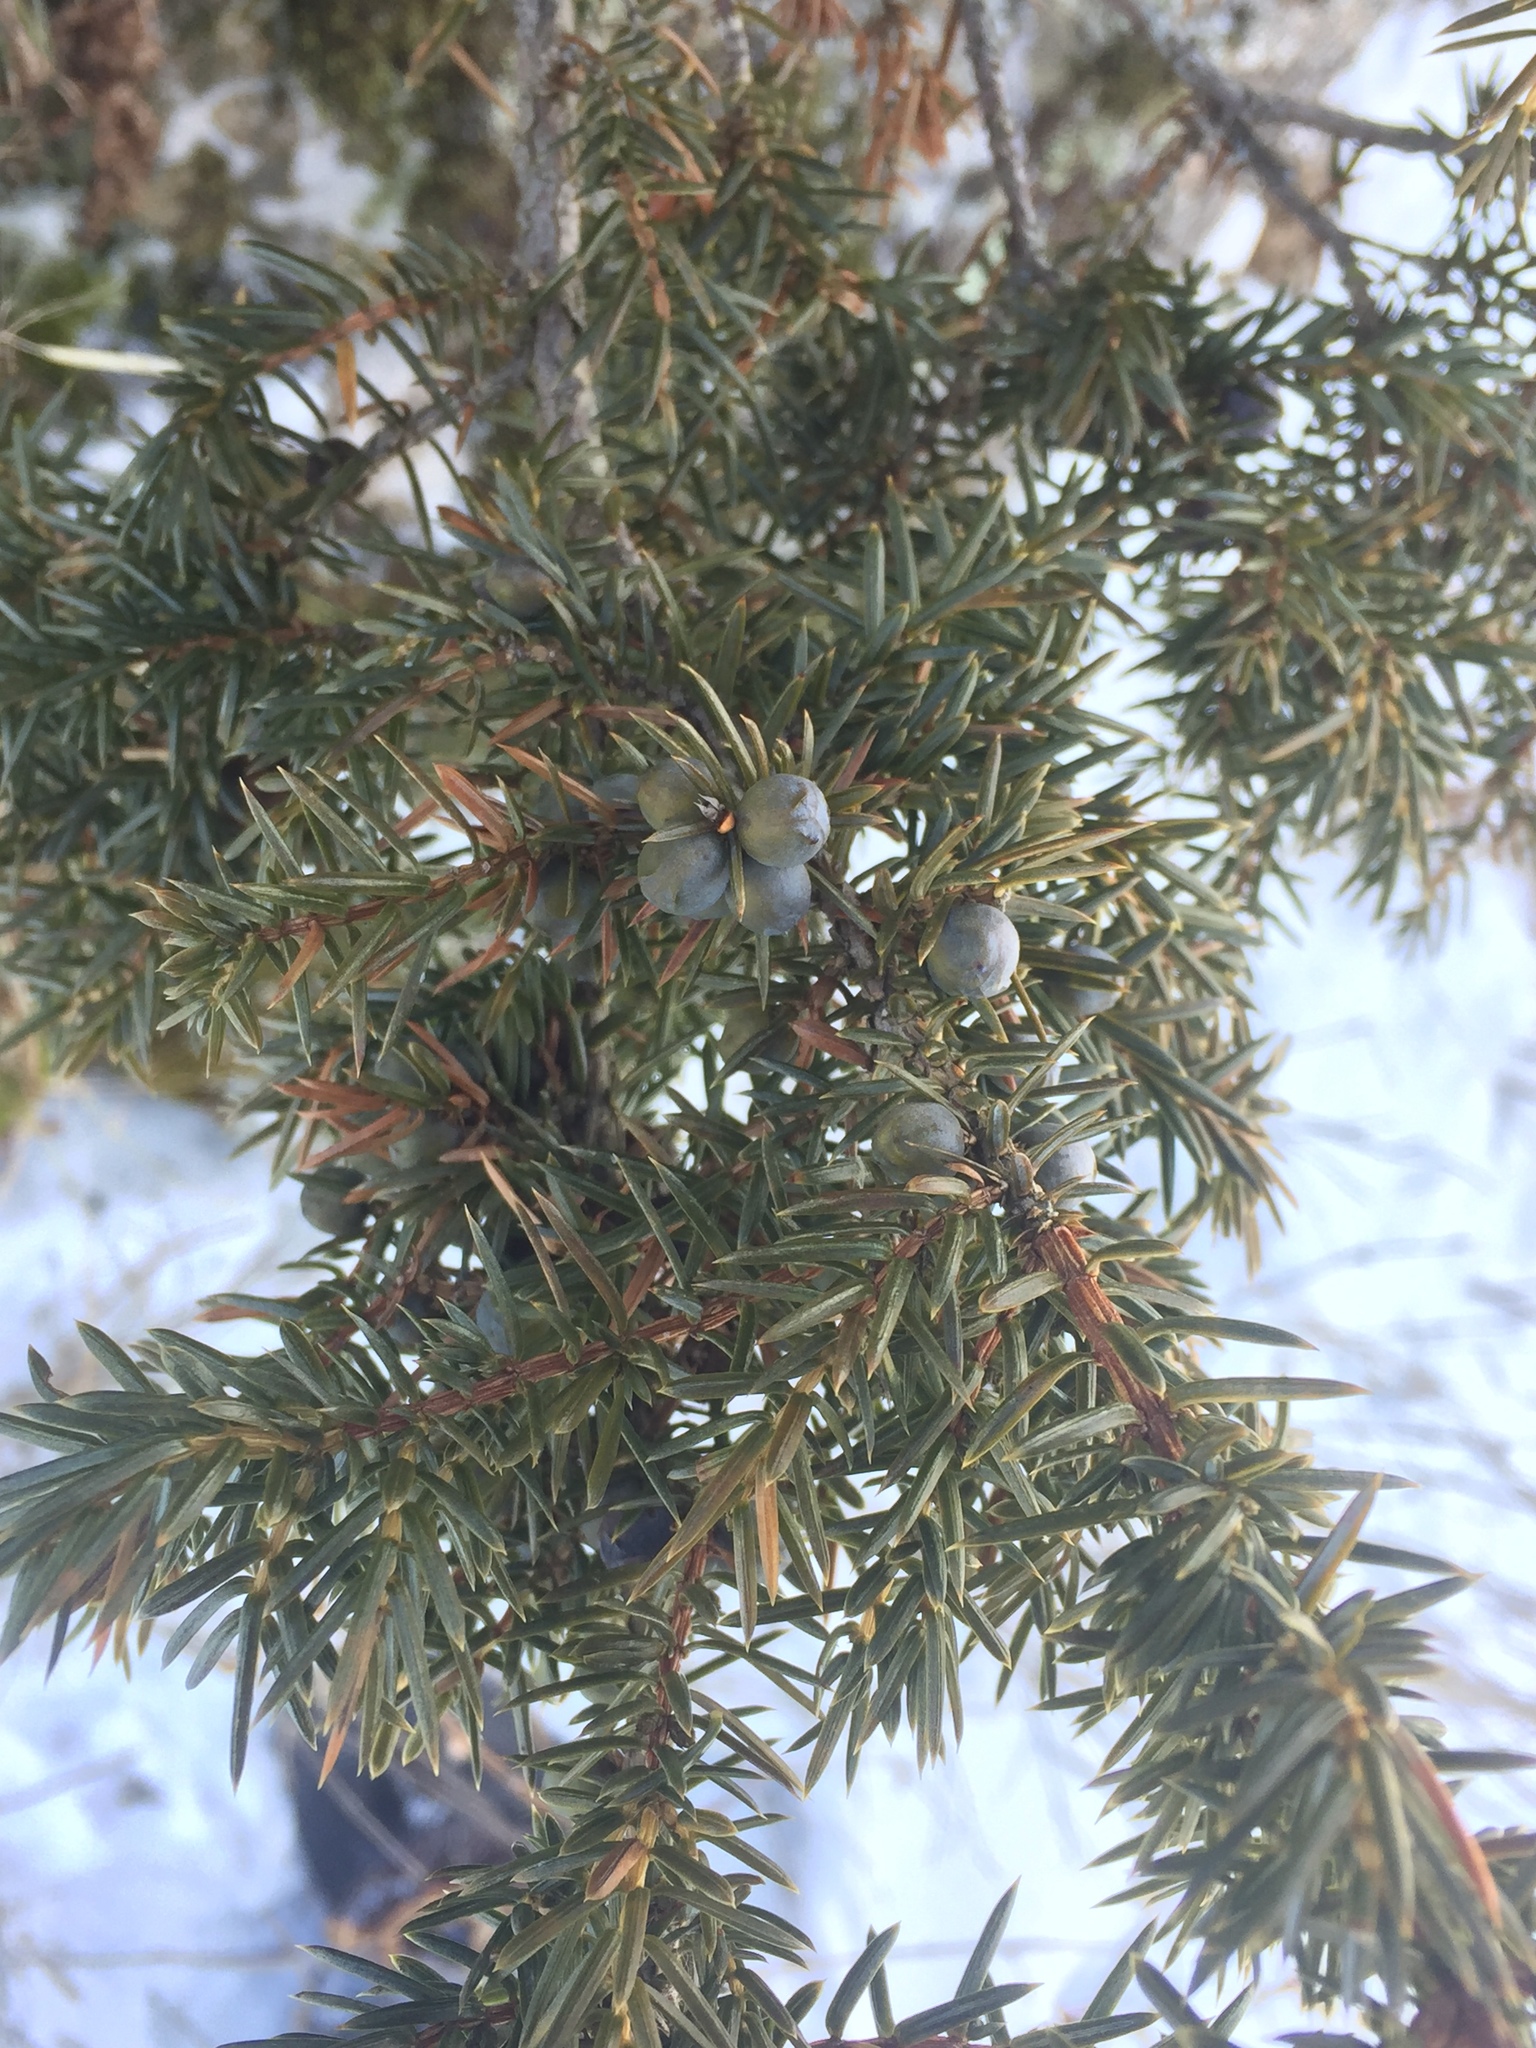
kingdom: Plantae
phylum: Tracheophyta
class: Pinopsida
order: Pinales
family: Cupressaceae
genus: Juniperus
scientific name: Juniperus communis
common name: Common juniper
